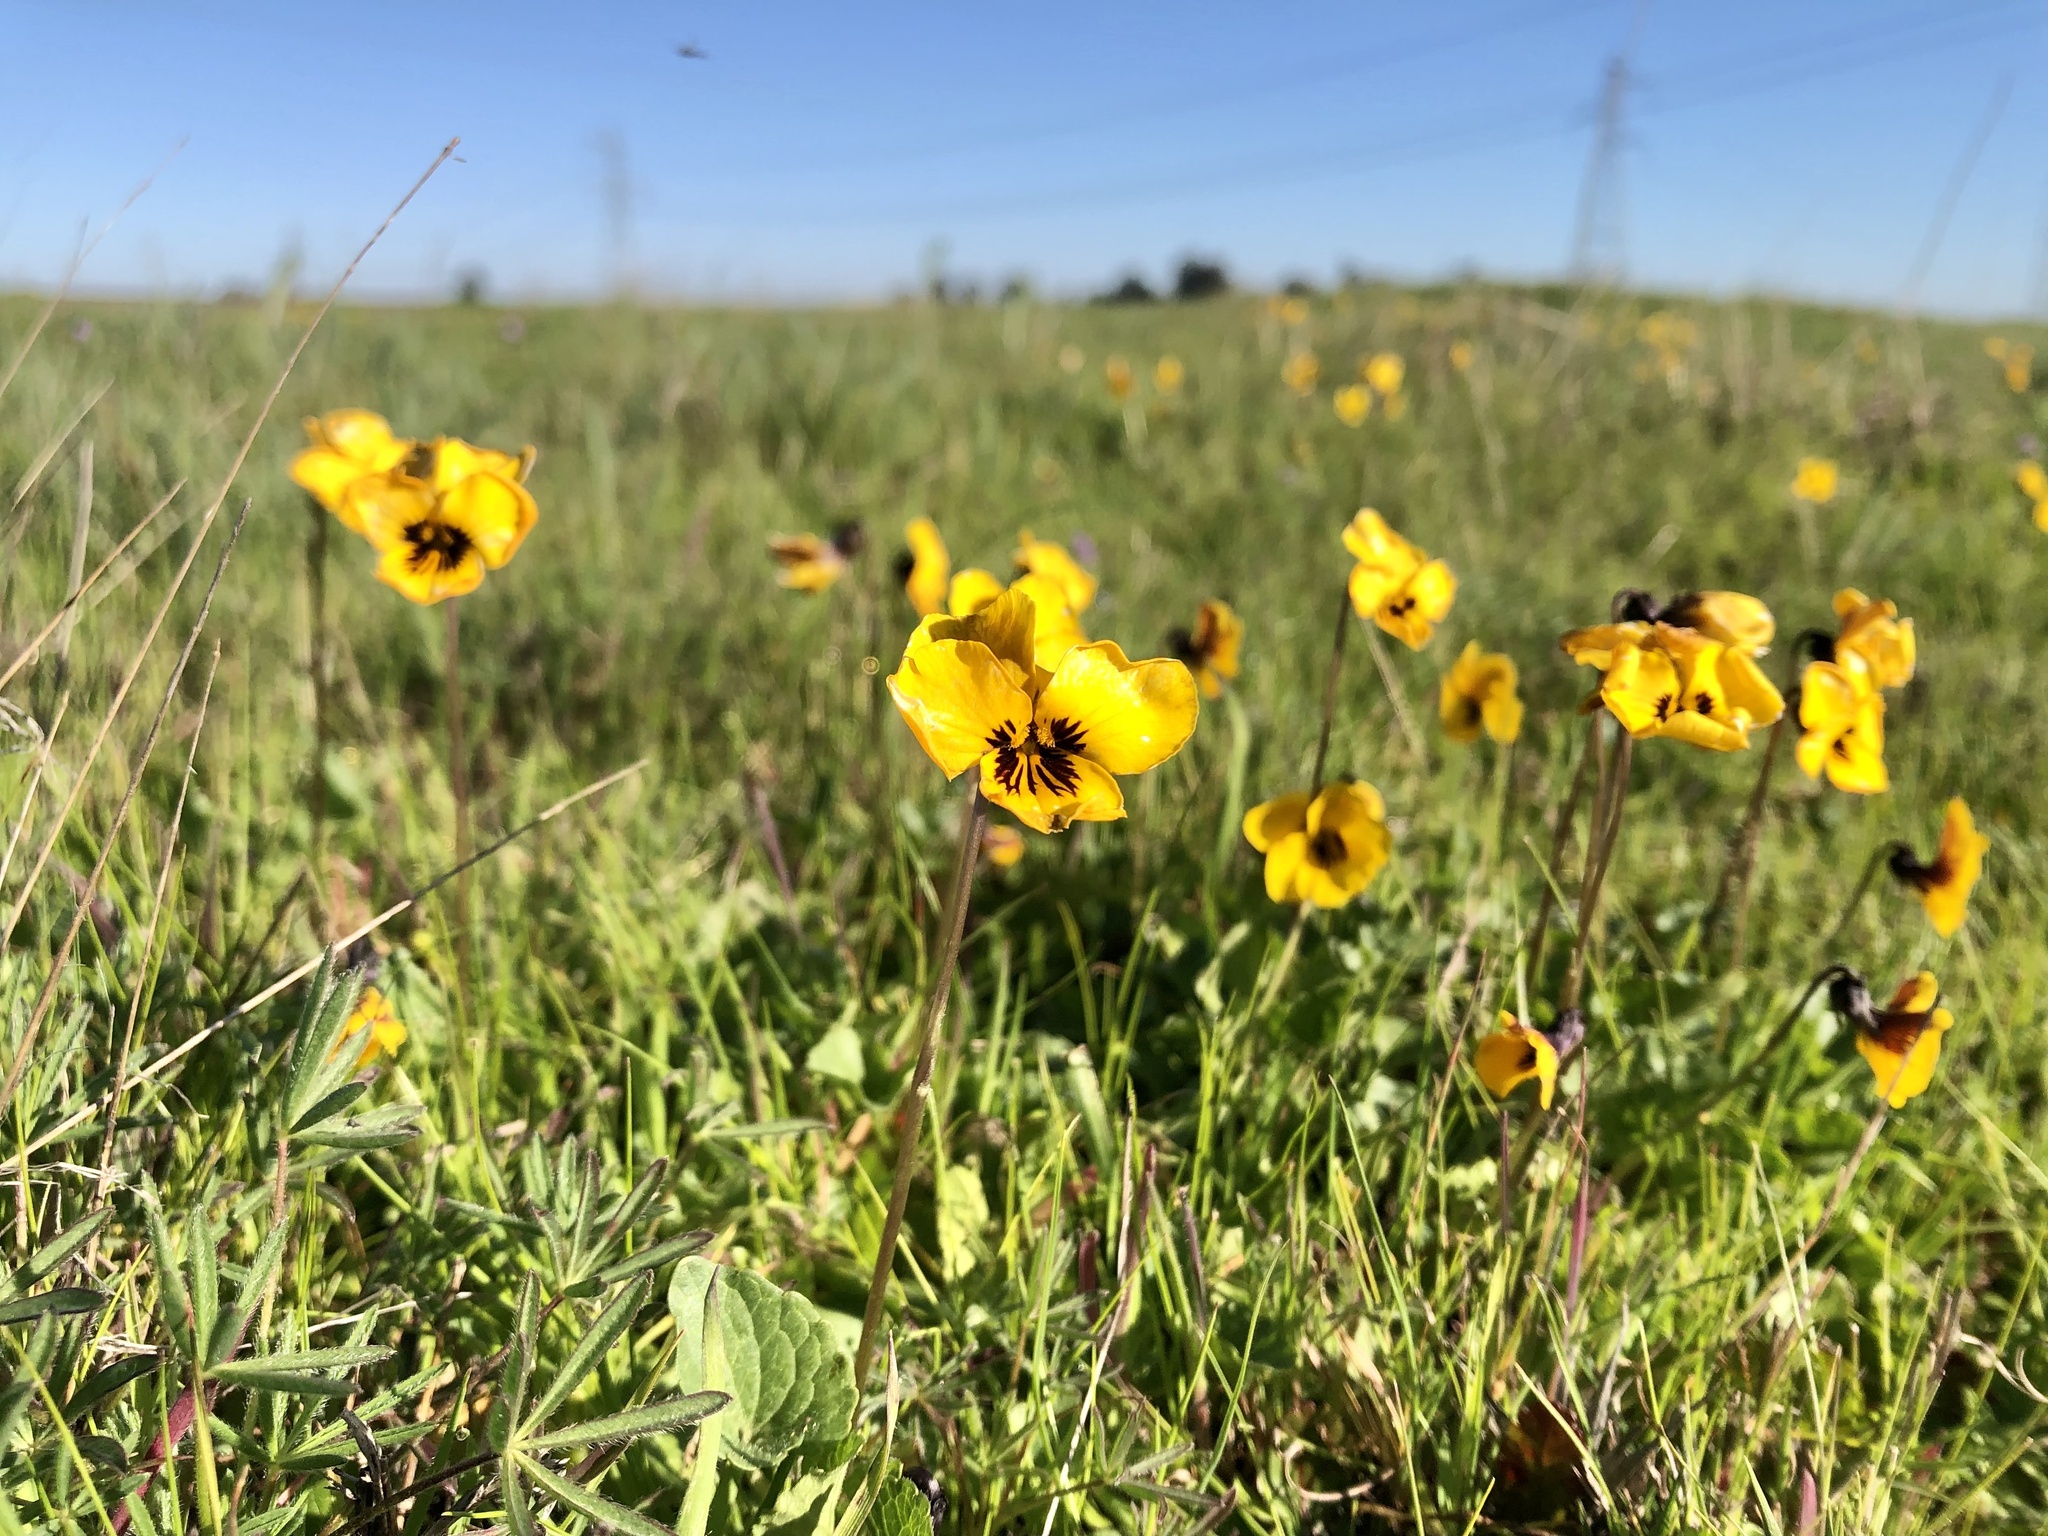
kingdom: Plantae
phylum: Tracheophyta
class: Magnoliopsida
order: Malpighiales
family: Violaceae
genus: Viola
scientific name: Viola pedunculata
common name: California golden violet
